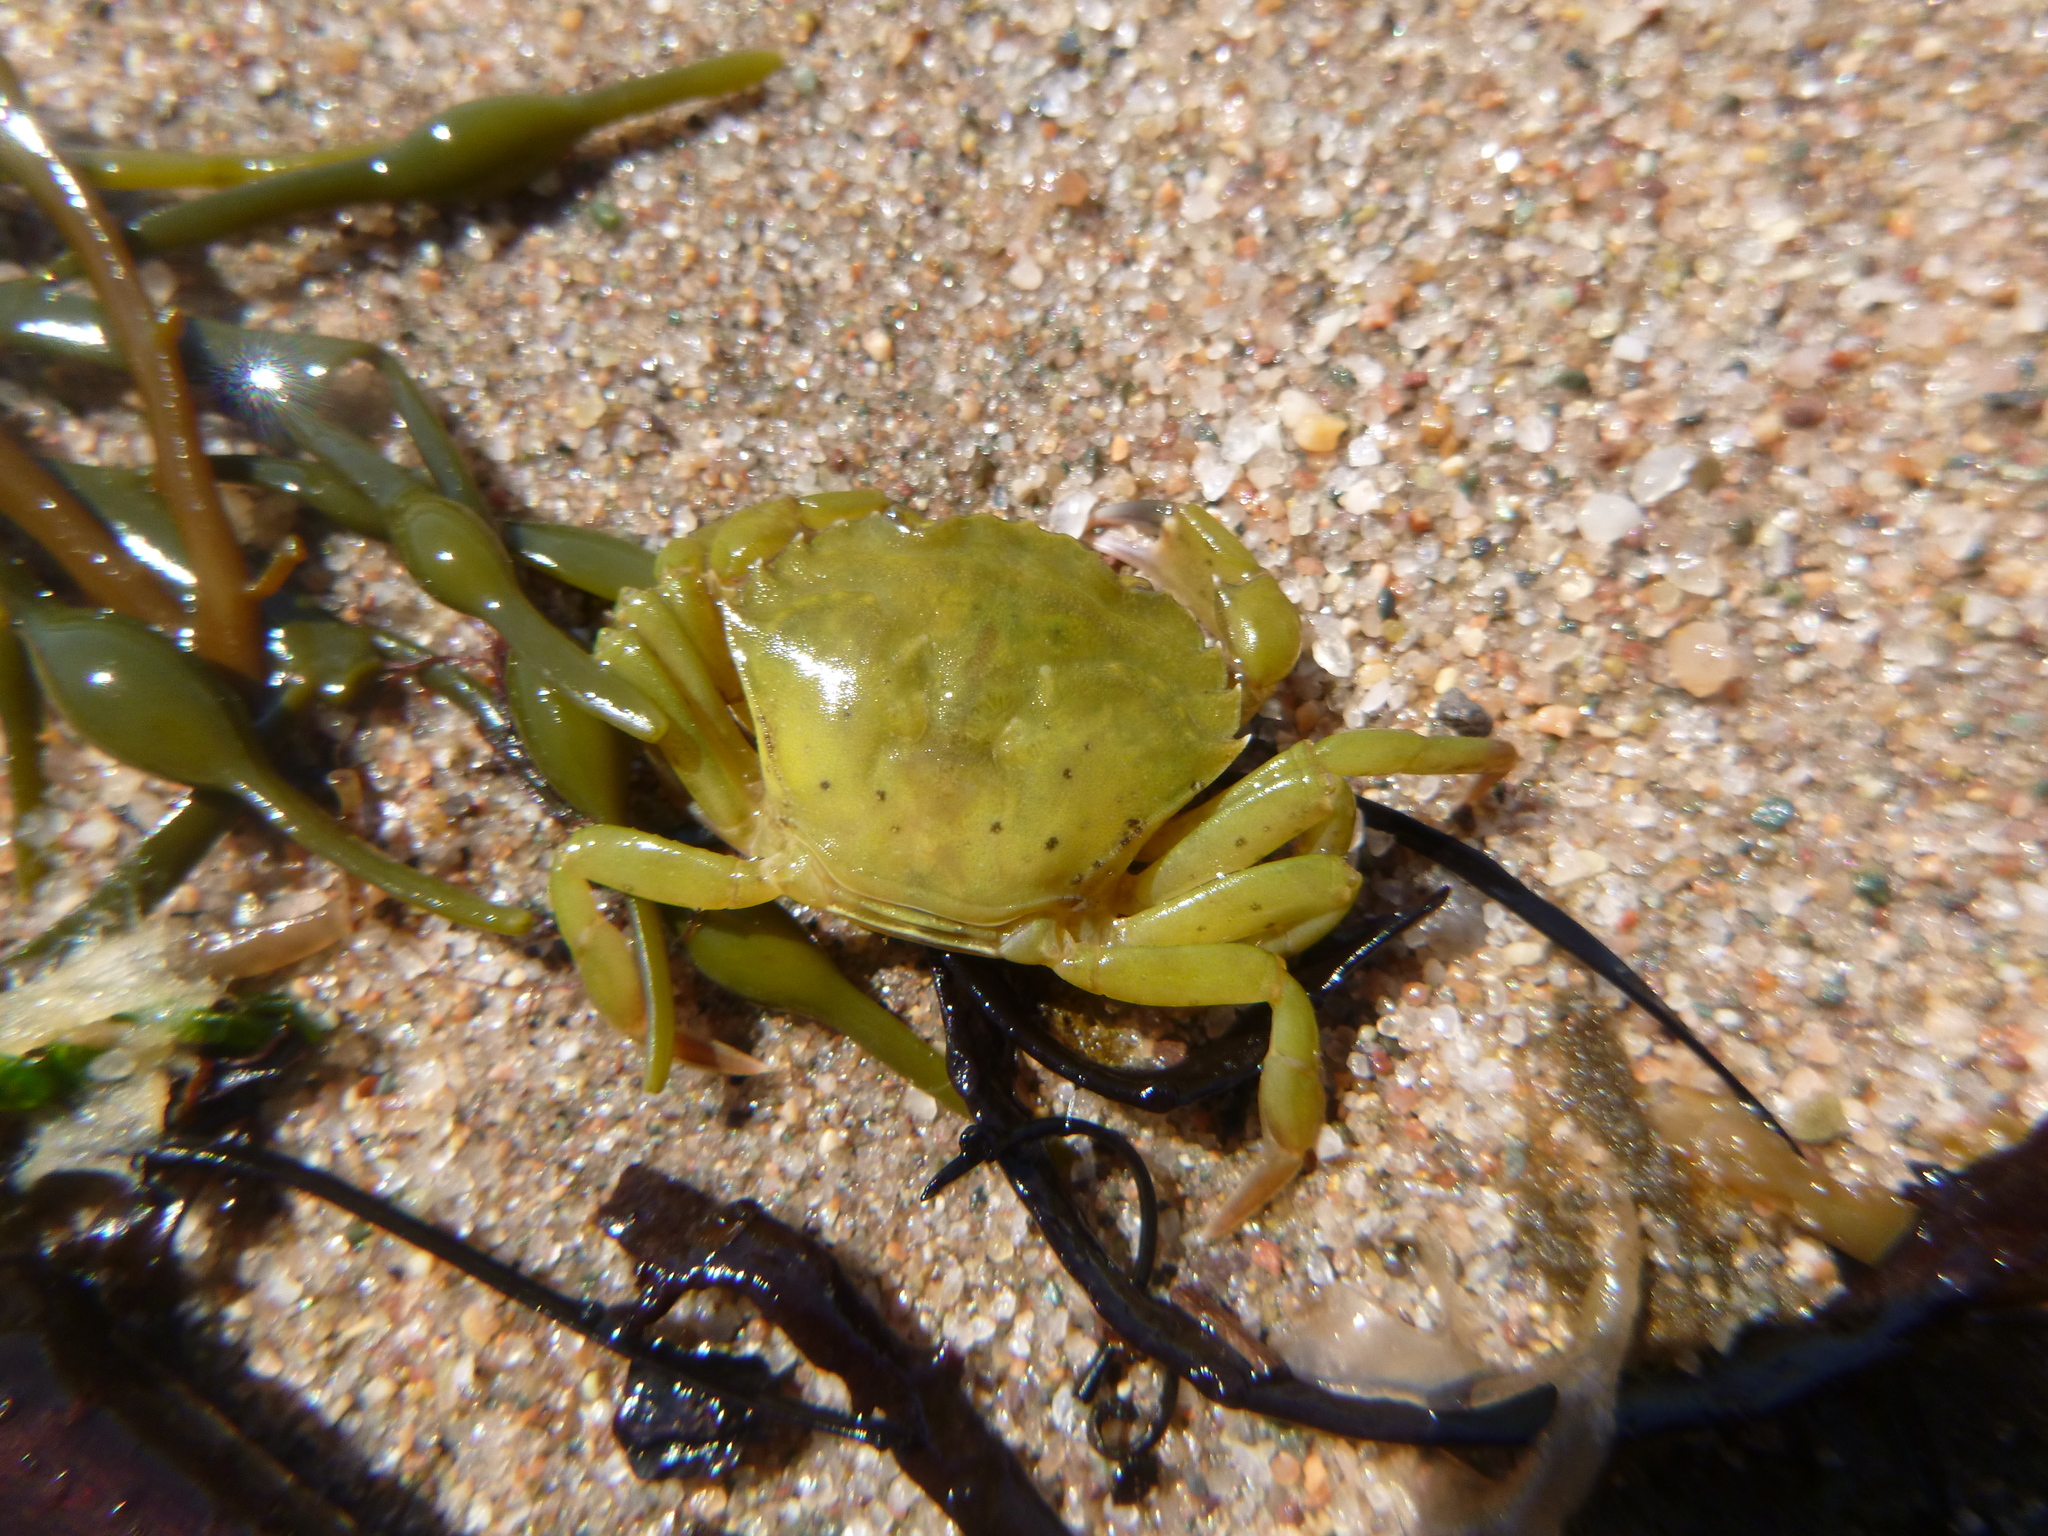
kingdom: Animalia
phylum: Arthropoda
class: Malacostraca
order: Decapoda
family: Carcinidae
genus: Carcinus
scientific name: Carcinus maenas
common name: European green crab
